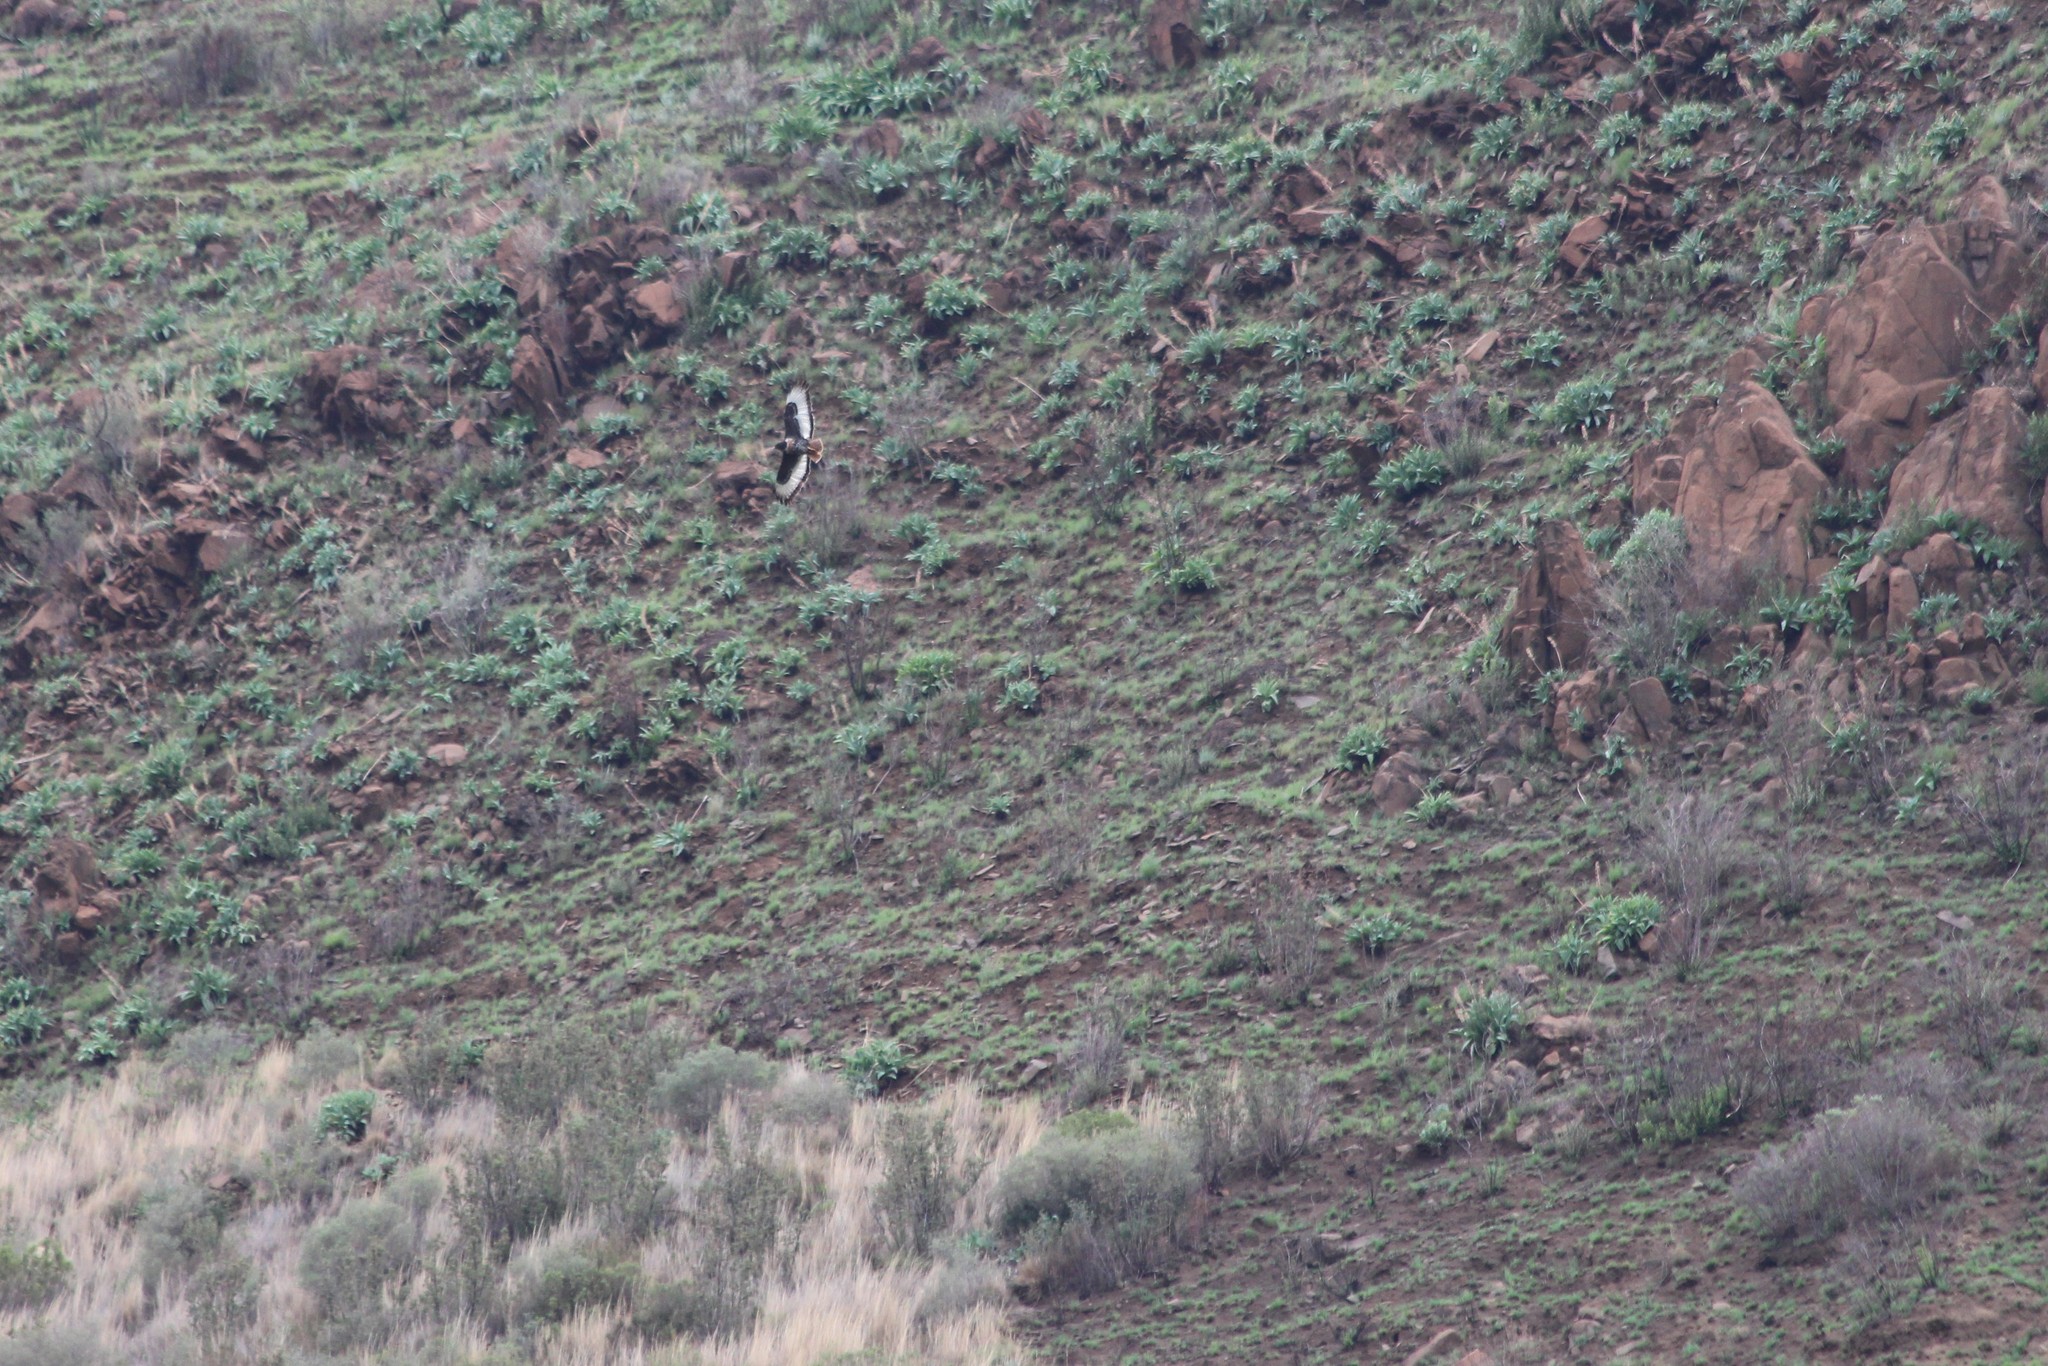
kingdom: Animalia
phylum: Chordata
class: Aves
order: Accipitriformes
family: Accipitridae
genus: Buteo
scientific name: Buteo rufofuscus
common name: Jackal buzzard
